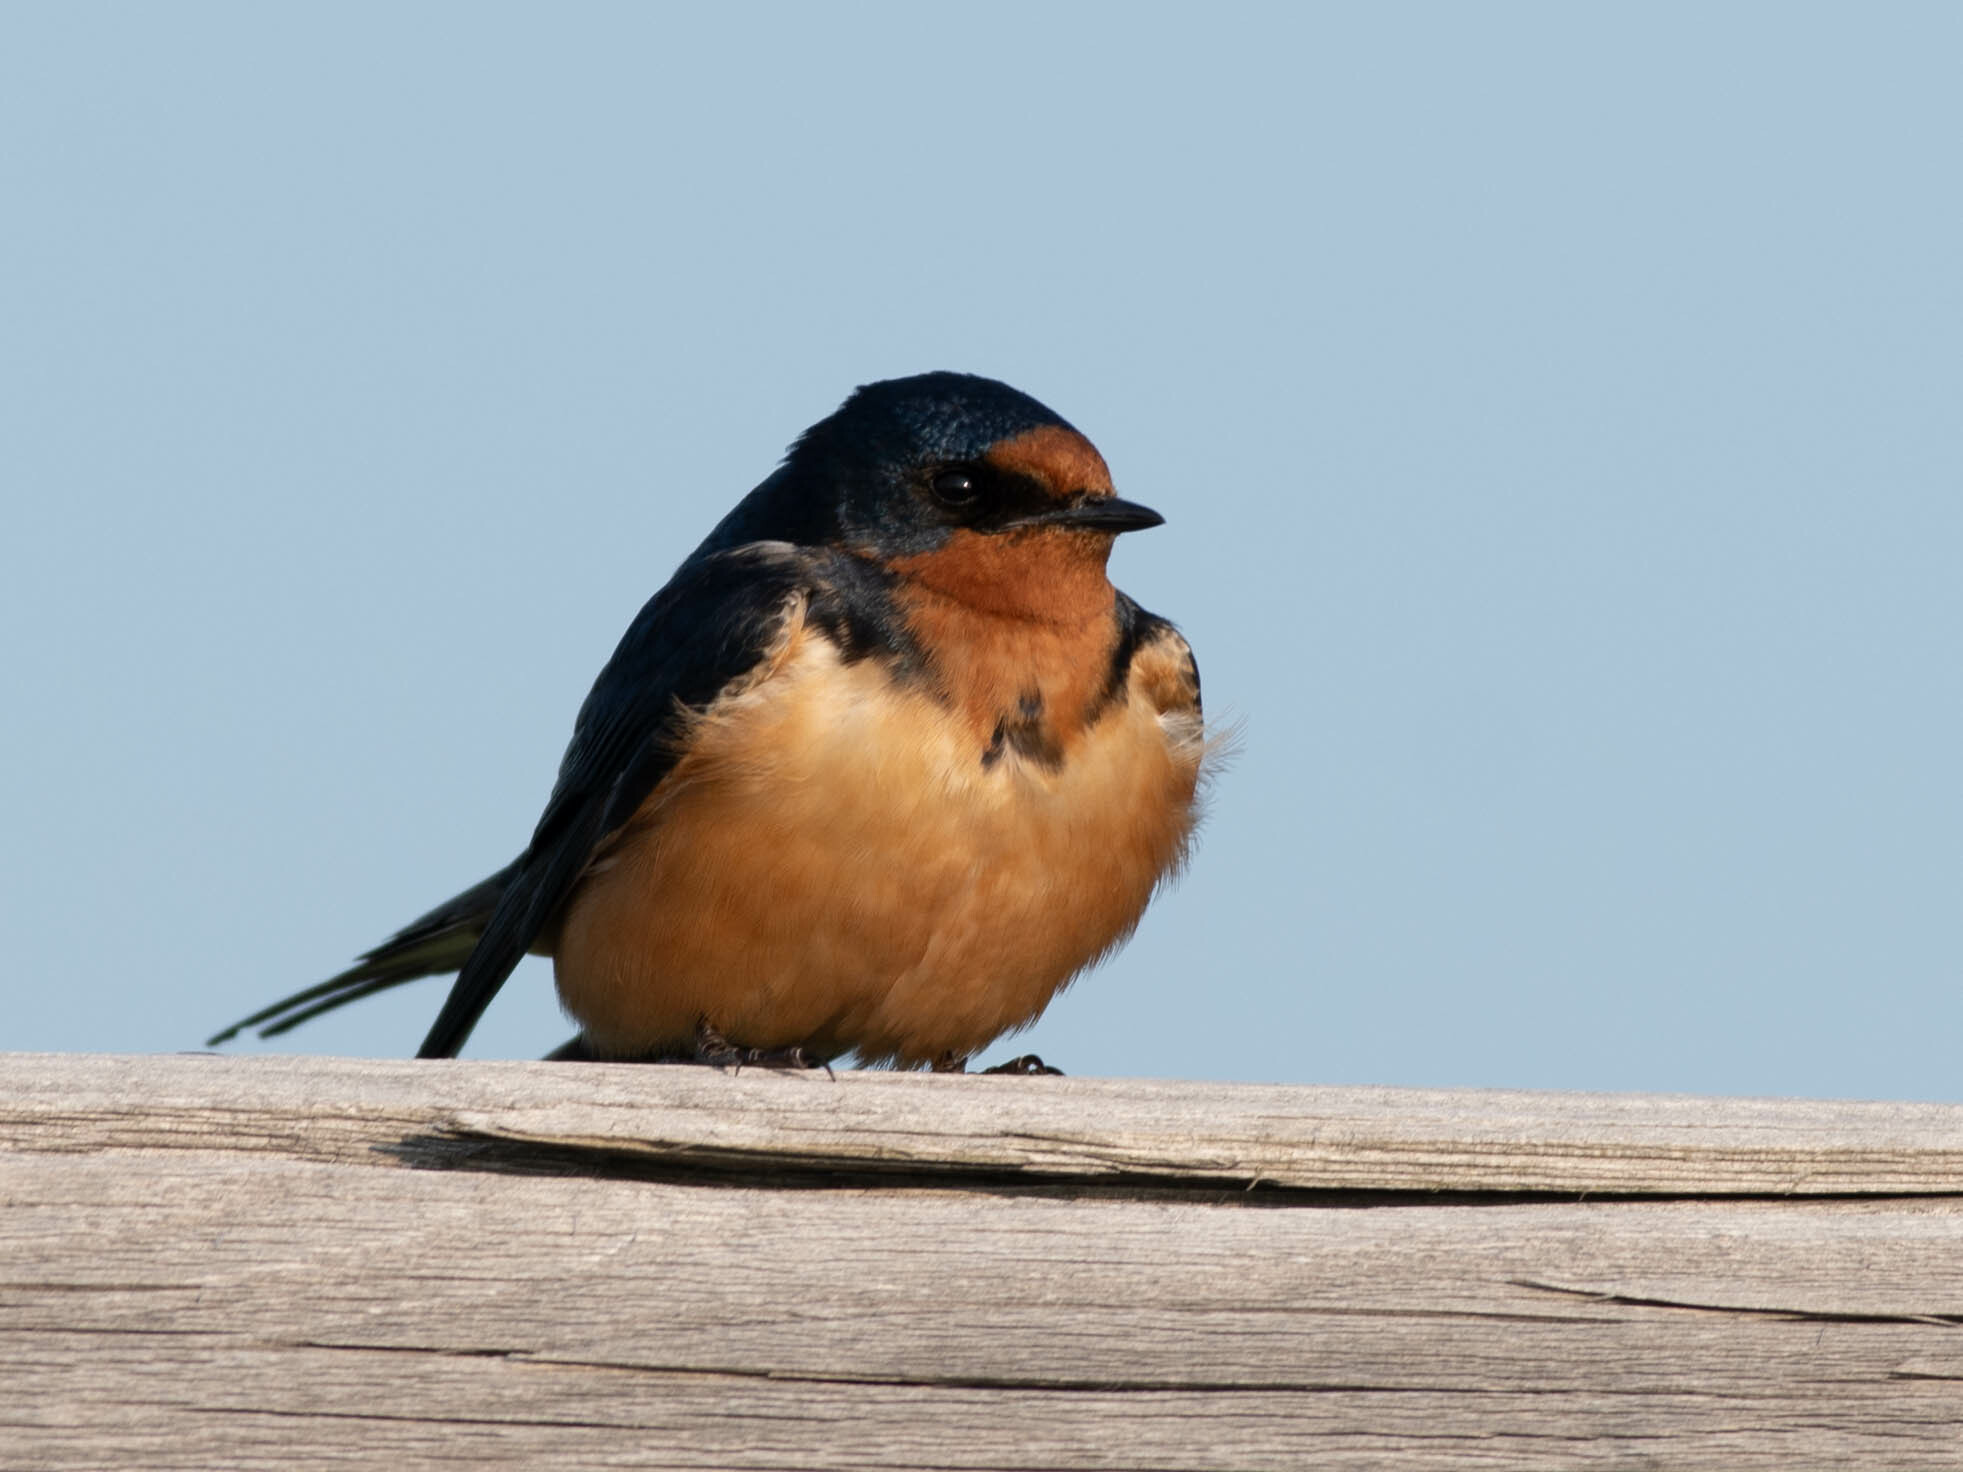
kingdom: Animalia
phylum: Chordata
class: Aves
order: Passeriformes
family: Hirundinidae
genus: Hirundo
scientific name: Hirundo rustica
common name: Barn swallow
